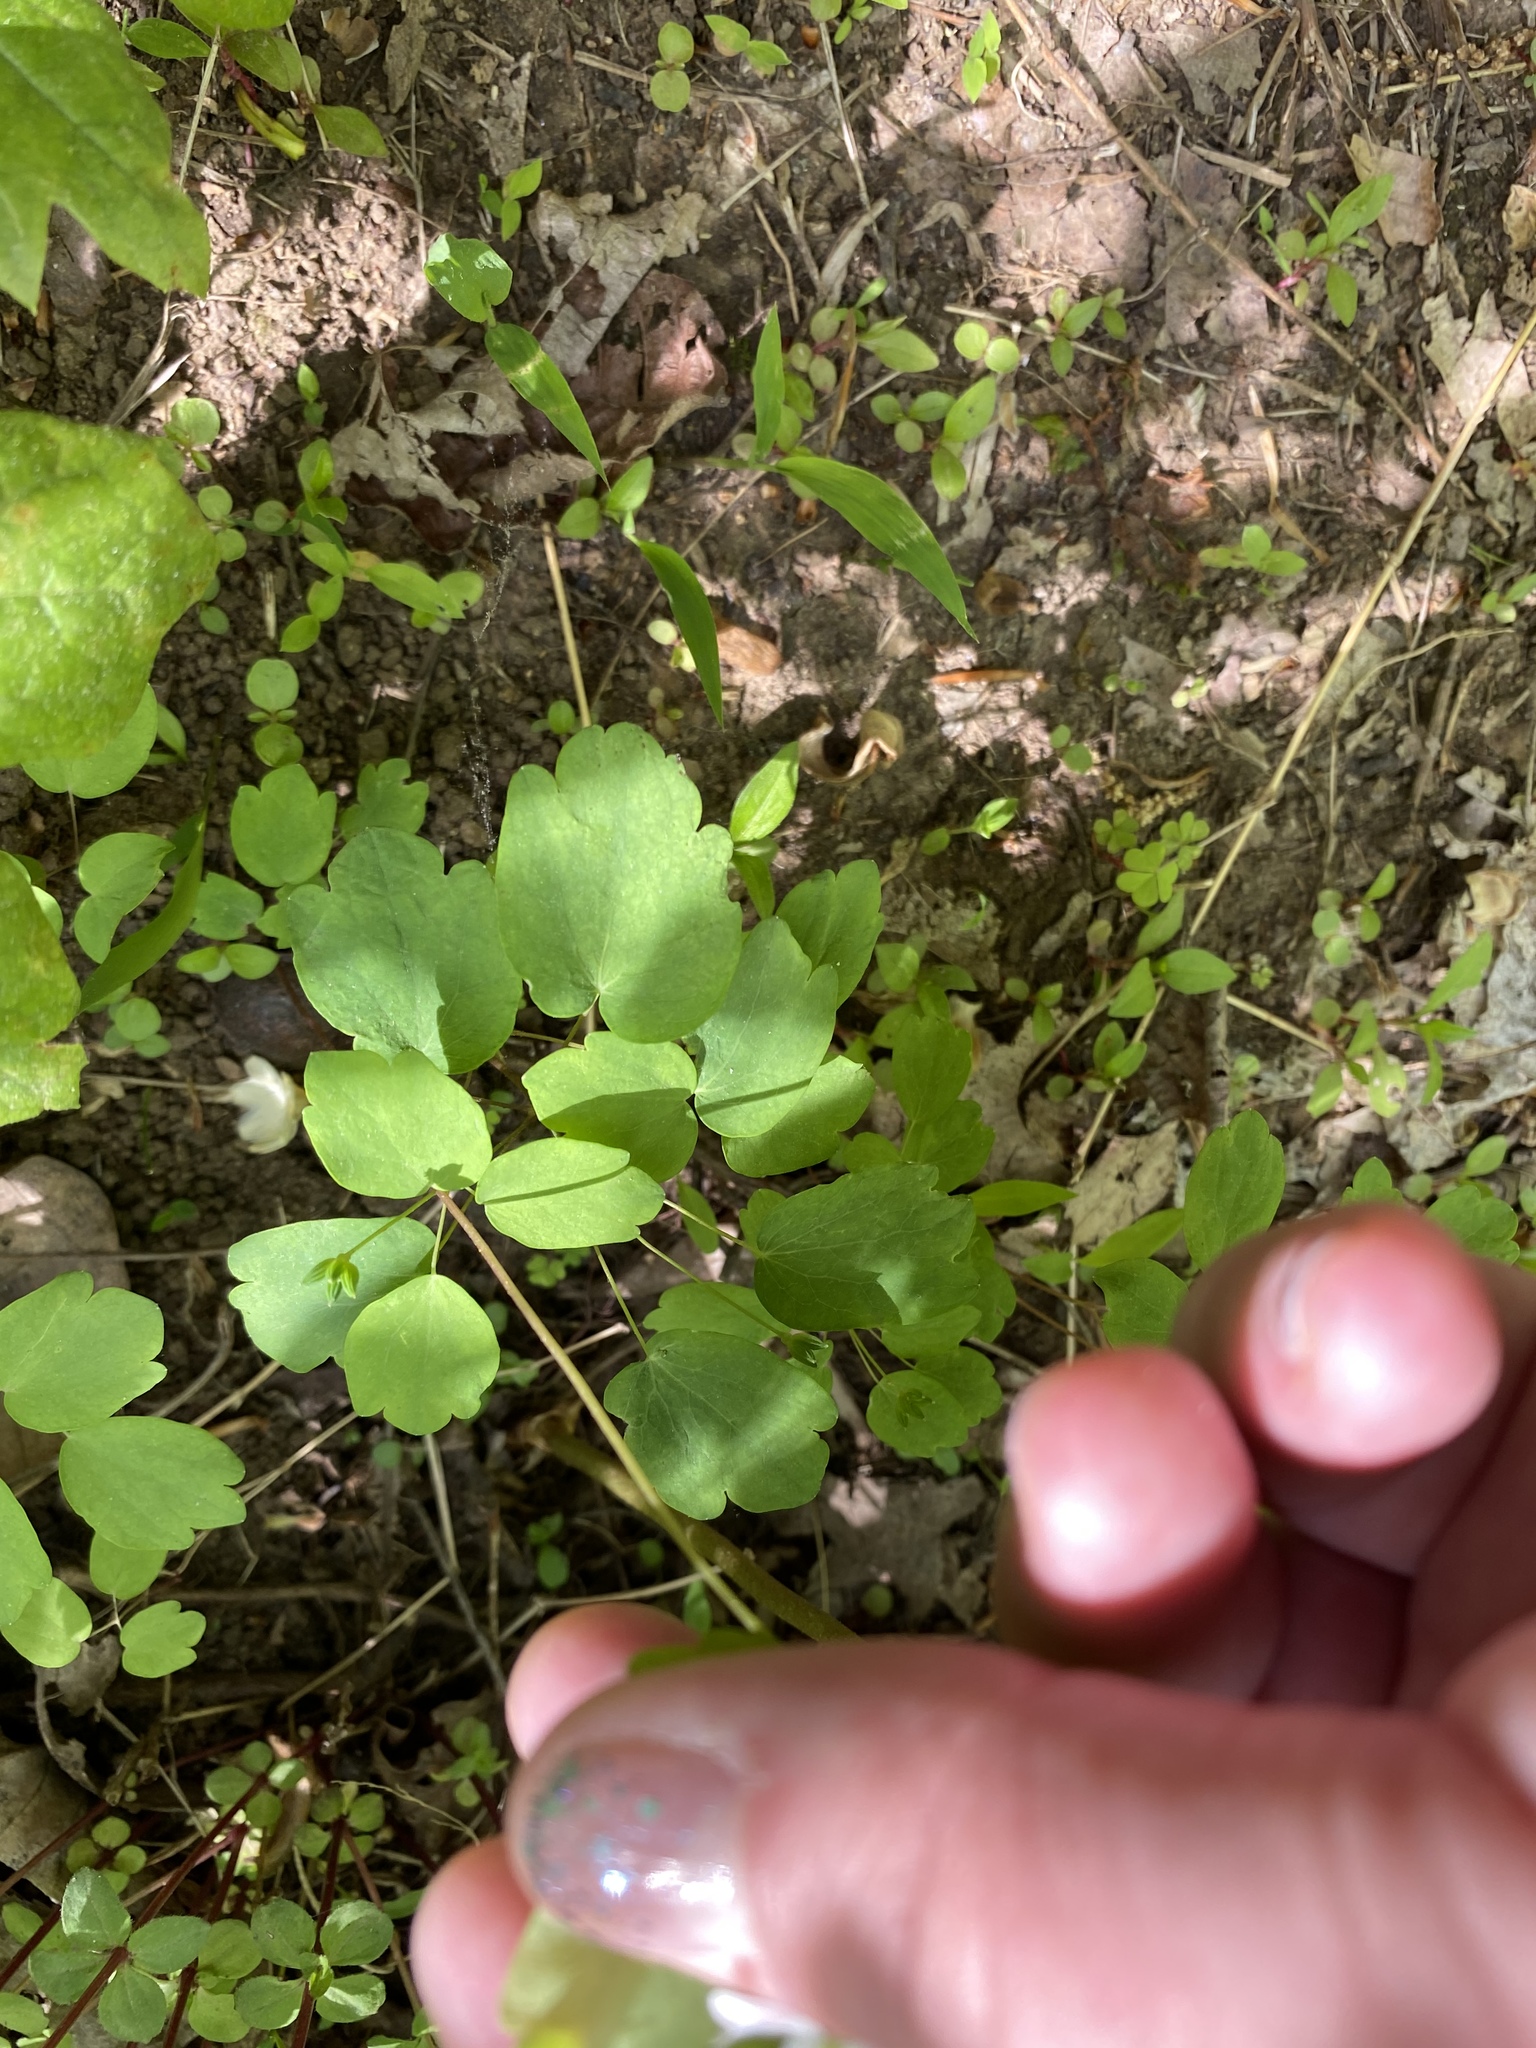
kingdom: Plantae
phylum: Tracheophyta
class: Magnoliopsida
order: Ranunculales
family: Ranunculaceae
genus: Thalictrum
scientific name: Thalictrum thalictroides
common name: Rue-anemone
